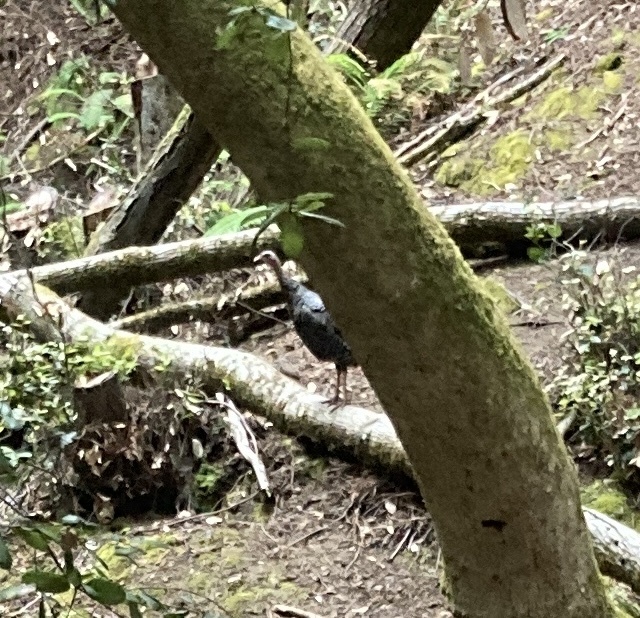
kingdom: Animalia
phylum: Chordata
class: Aves
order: Galliformes
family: Phasianidae
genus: Meleagris
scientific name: Meleagris gallopavo
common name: Wild turkey
